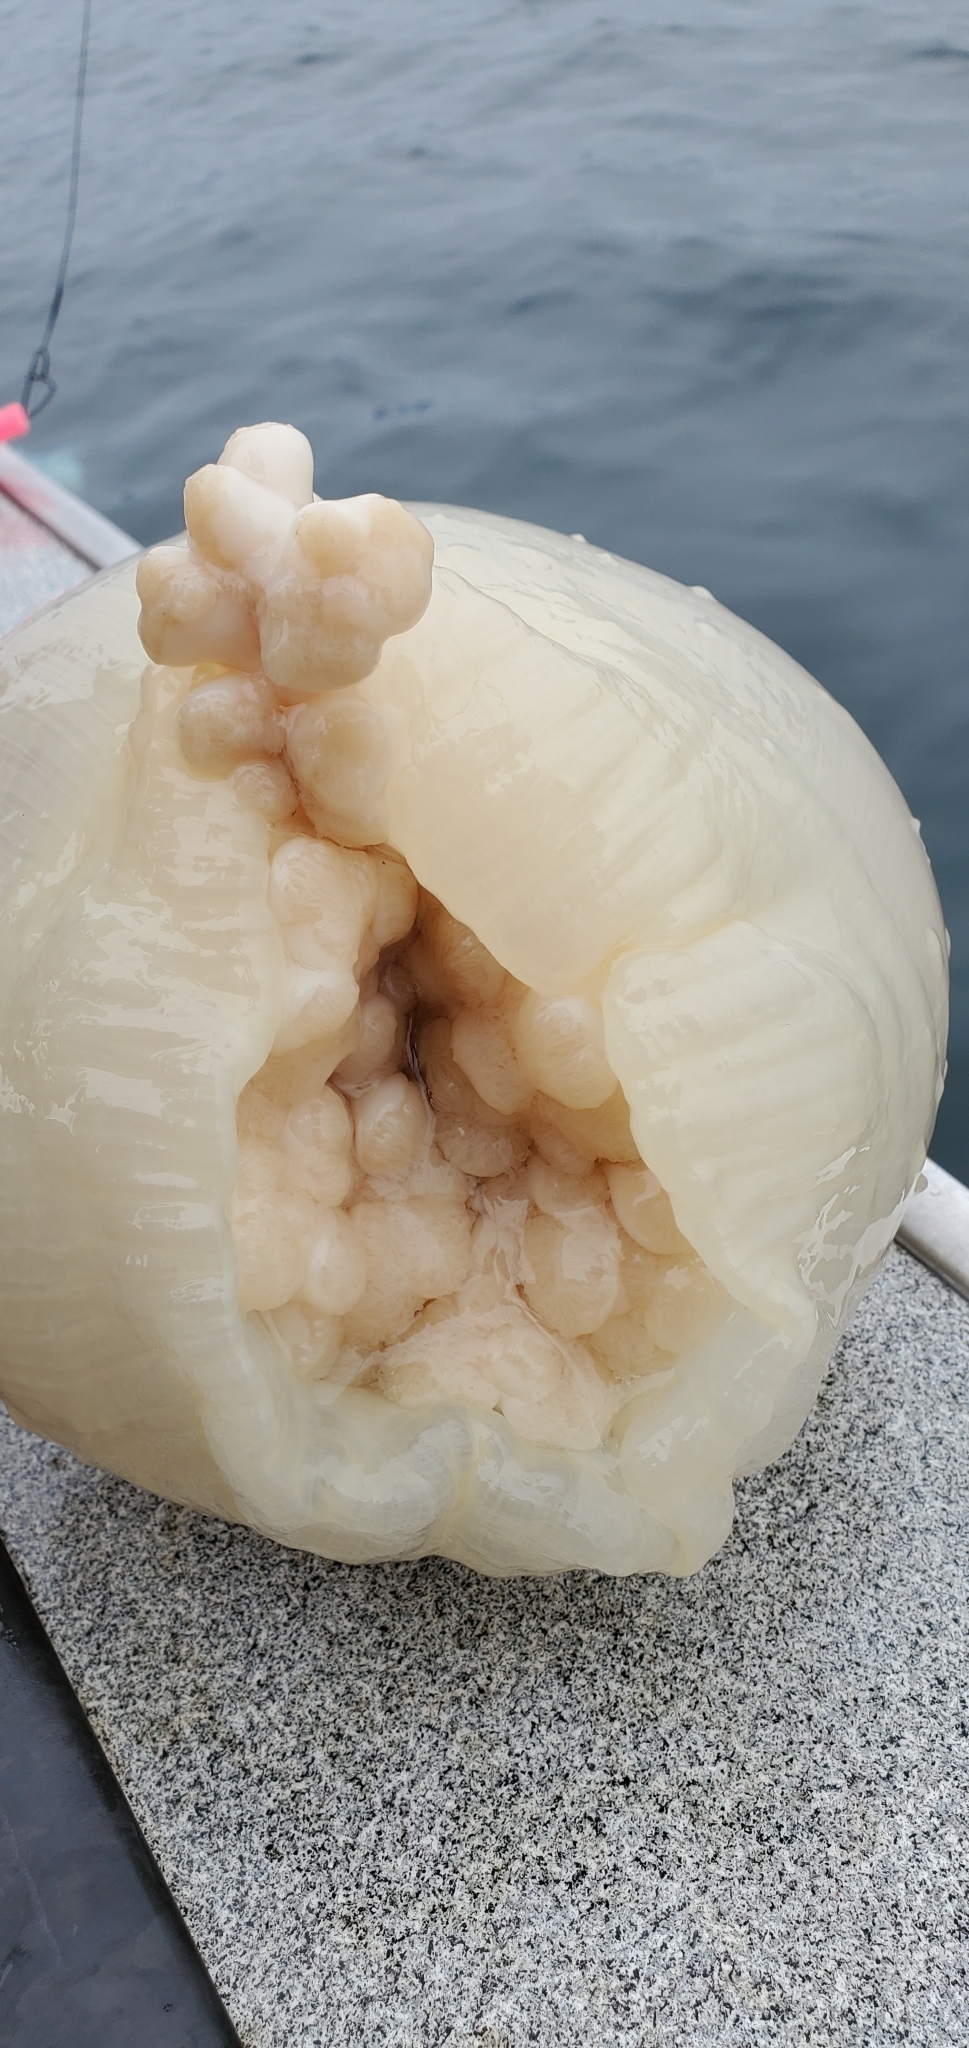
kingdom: Animalia
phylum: Cnidaria
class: Anthozoa
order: Actiniaria
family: Metridiidae
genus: Metridium
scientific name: Metridium farcimen
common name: Gigantic anemone
